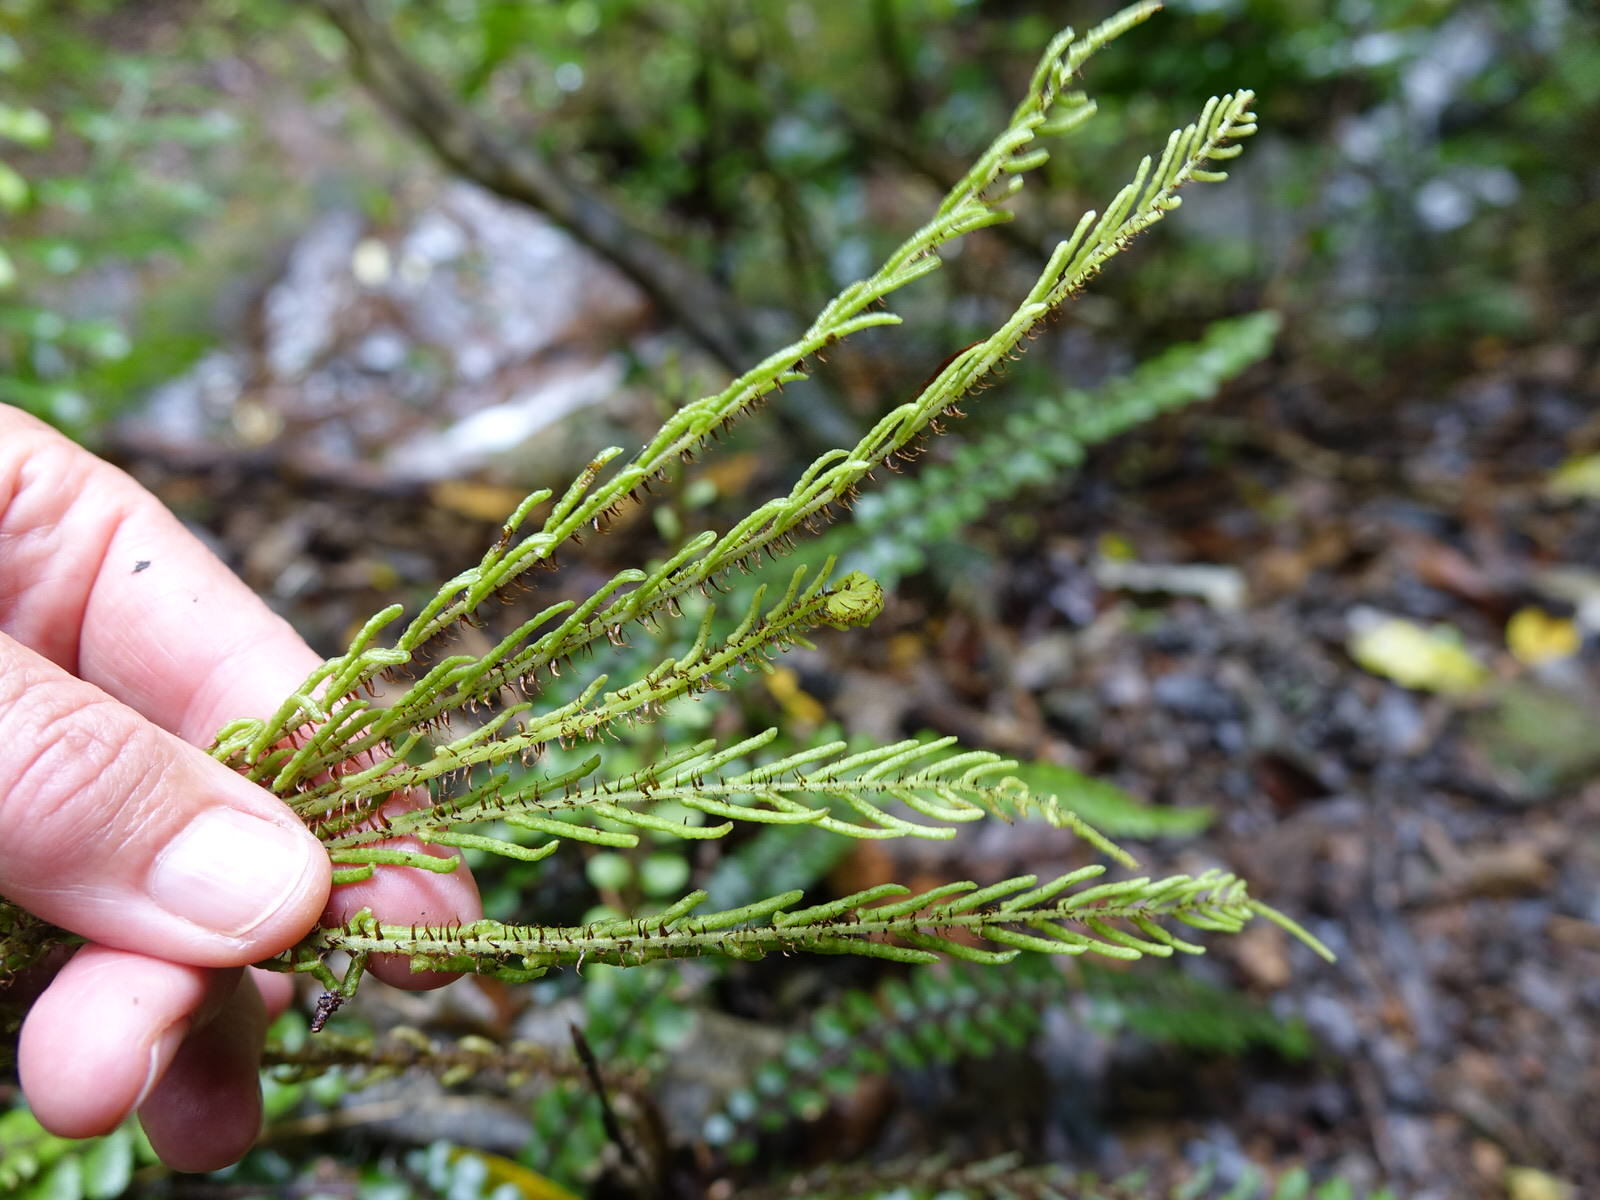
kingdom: Plantae
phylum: Tracheophyta
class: Polypodiopsida
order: Polypodiales
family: Blechnaceae
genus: Cranfillia
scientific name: Cranfillia fluviatilis
